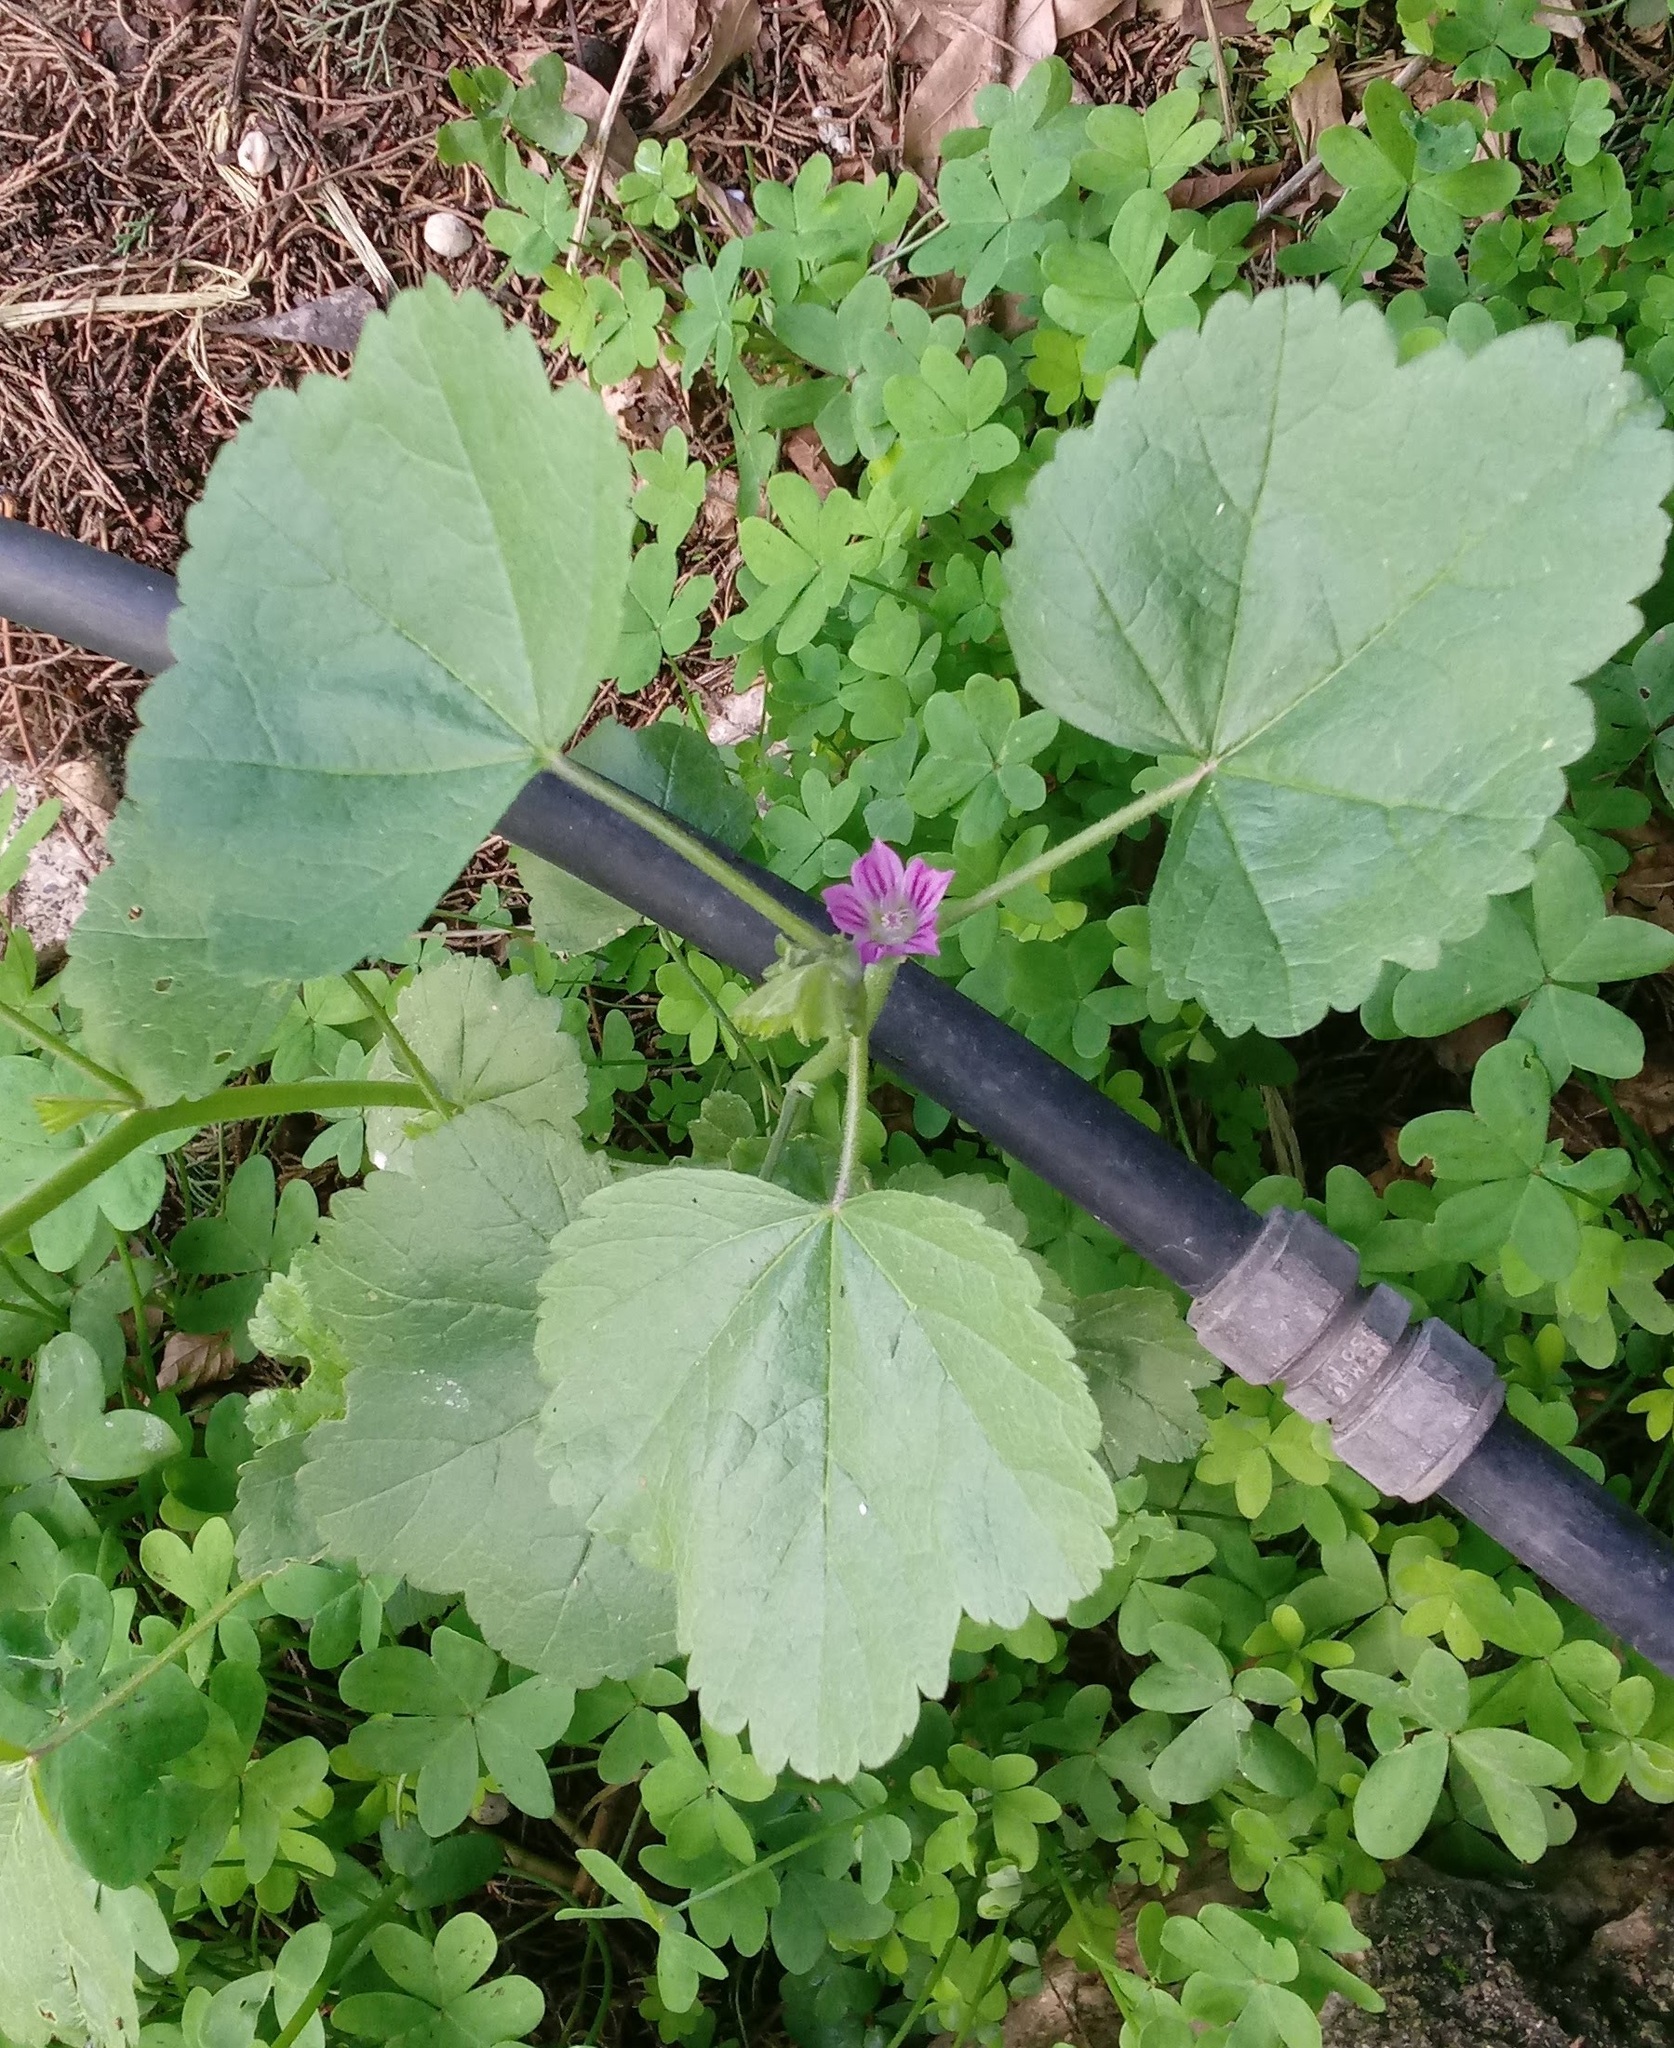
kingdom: Plantae
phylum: Tracheophyta
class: Magnoliopsida
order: Malvales
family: Malvaceae
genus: Malva
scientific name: Malva parviflora
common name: Least mallow
